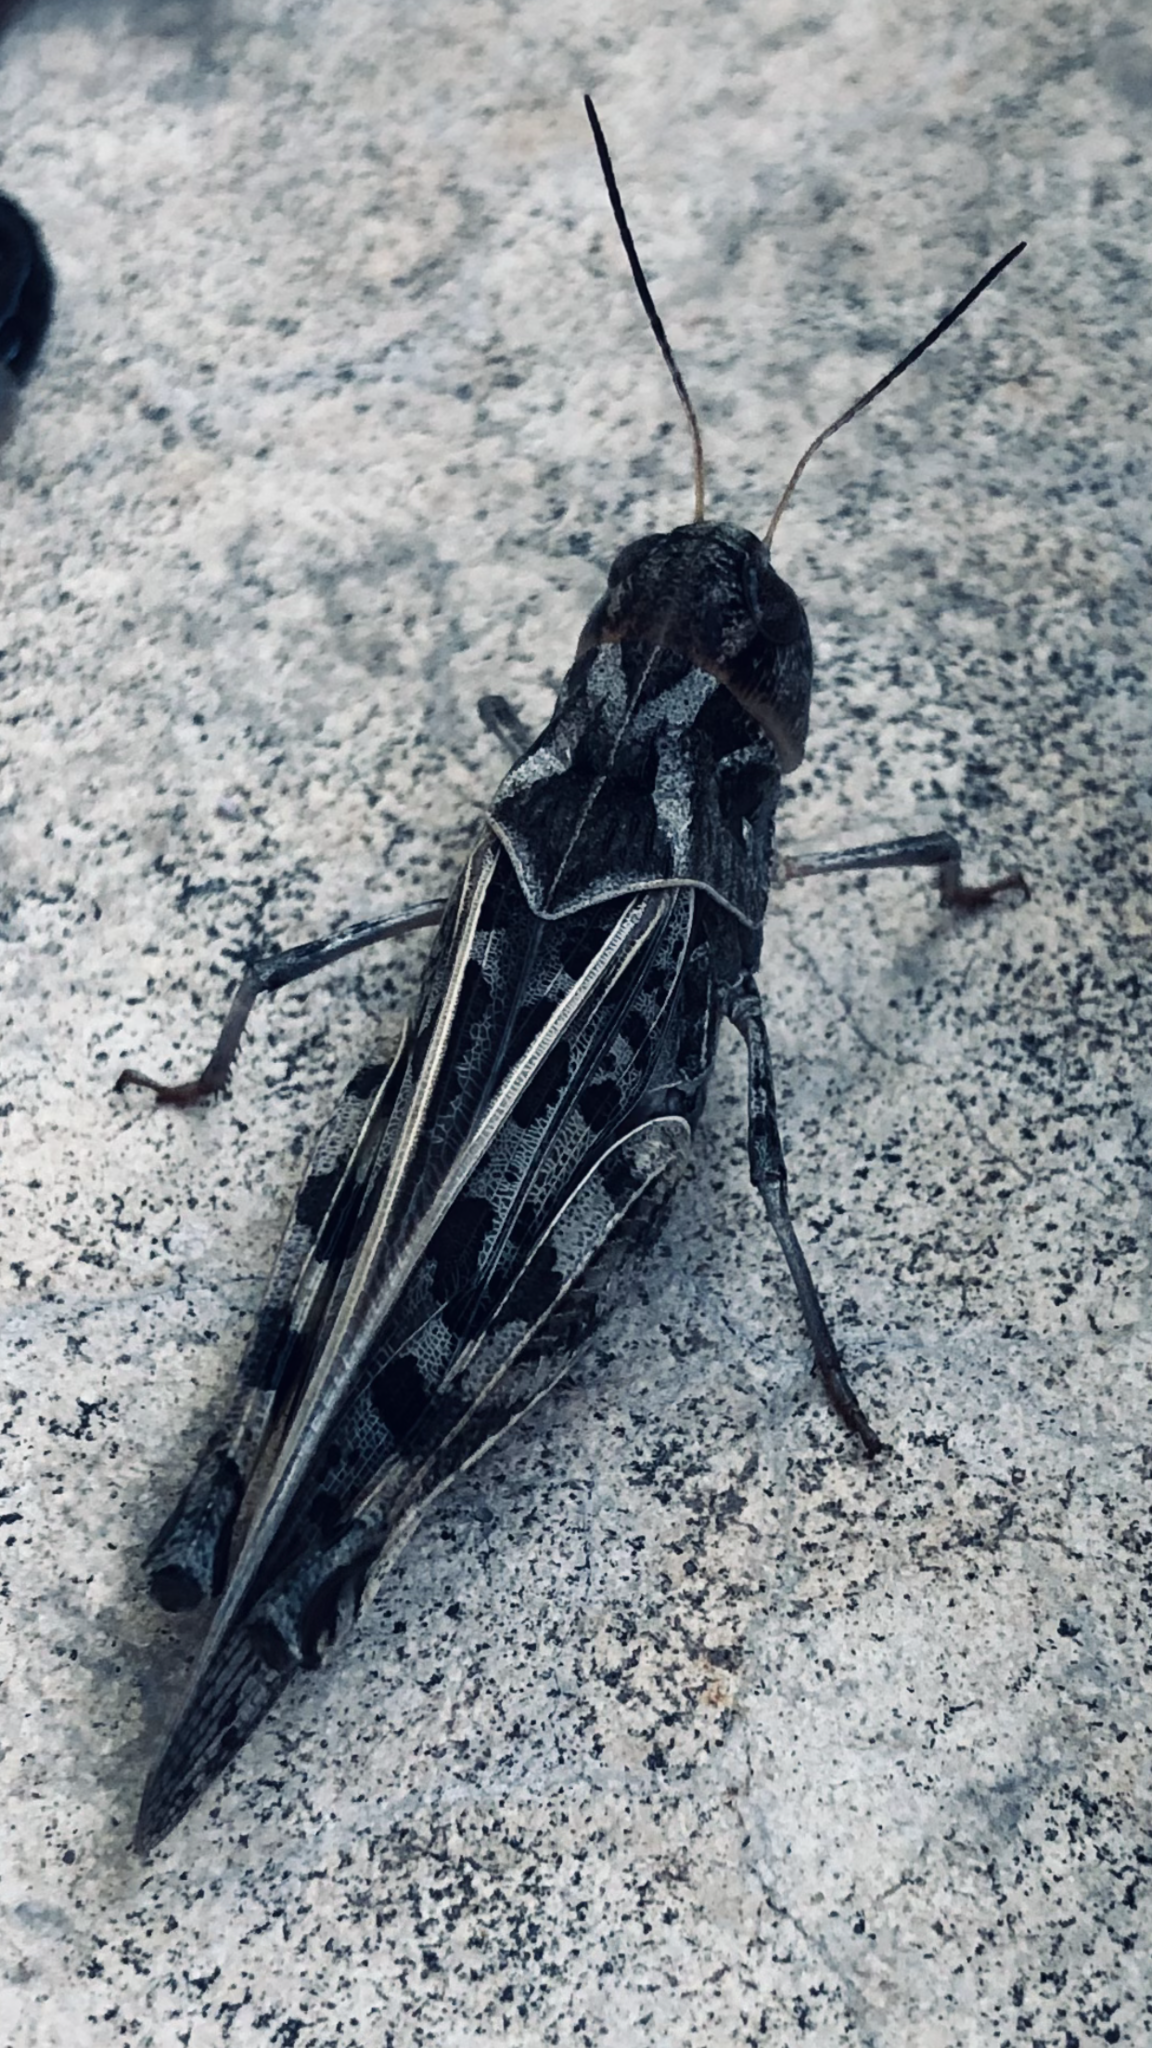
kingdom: Animalia
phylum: Arthropoda
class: Insecta
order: Orthoptera
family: Acrididae
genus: Hippiscus
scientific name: Hippiscus ocelote
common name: Wrinkled grasshopper
